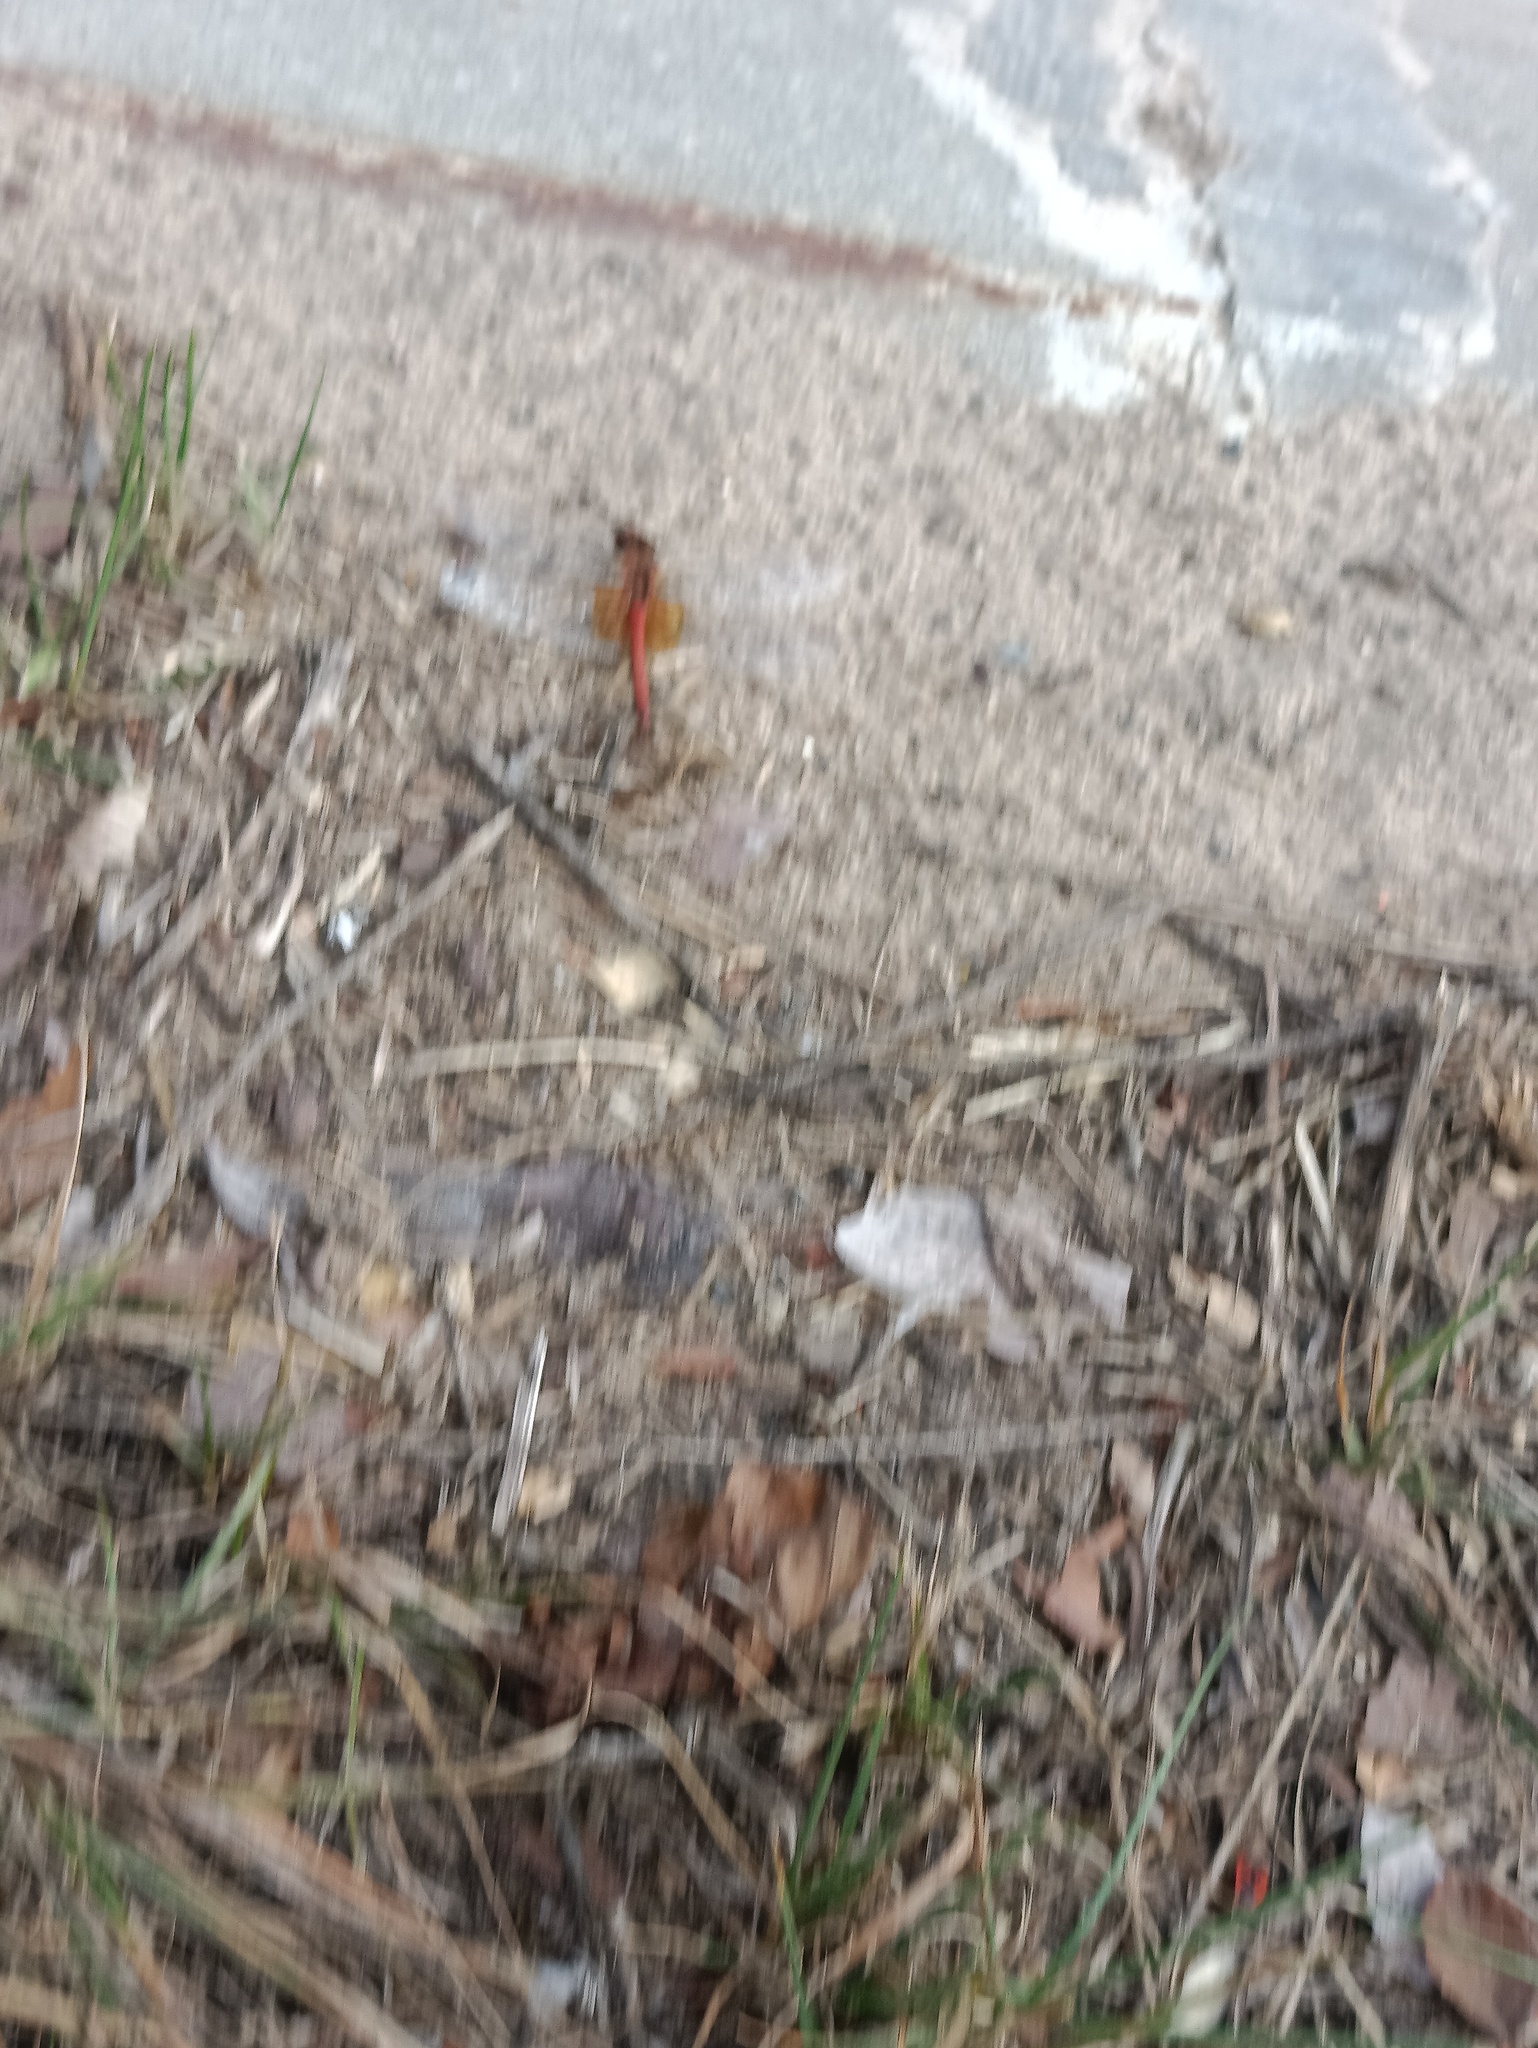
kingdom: Animalia
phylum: Arthropoda
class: Insecta
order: Odonata
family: Libellulidae
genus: Sympetrum
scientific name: Sympetrum flaveolum
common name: Yellow-winged darter
